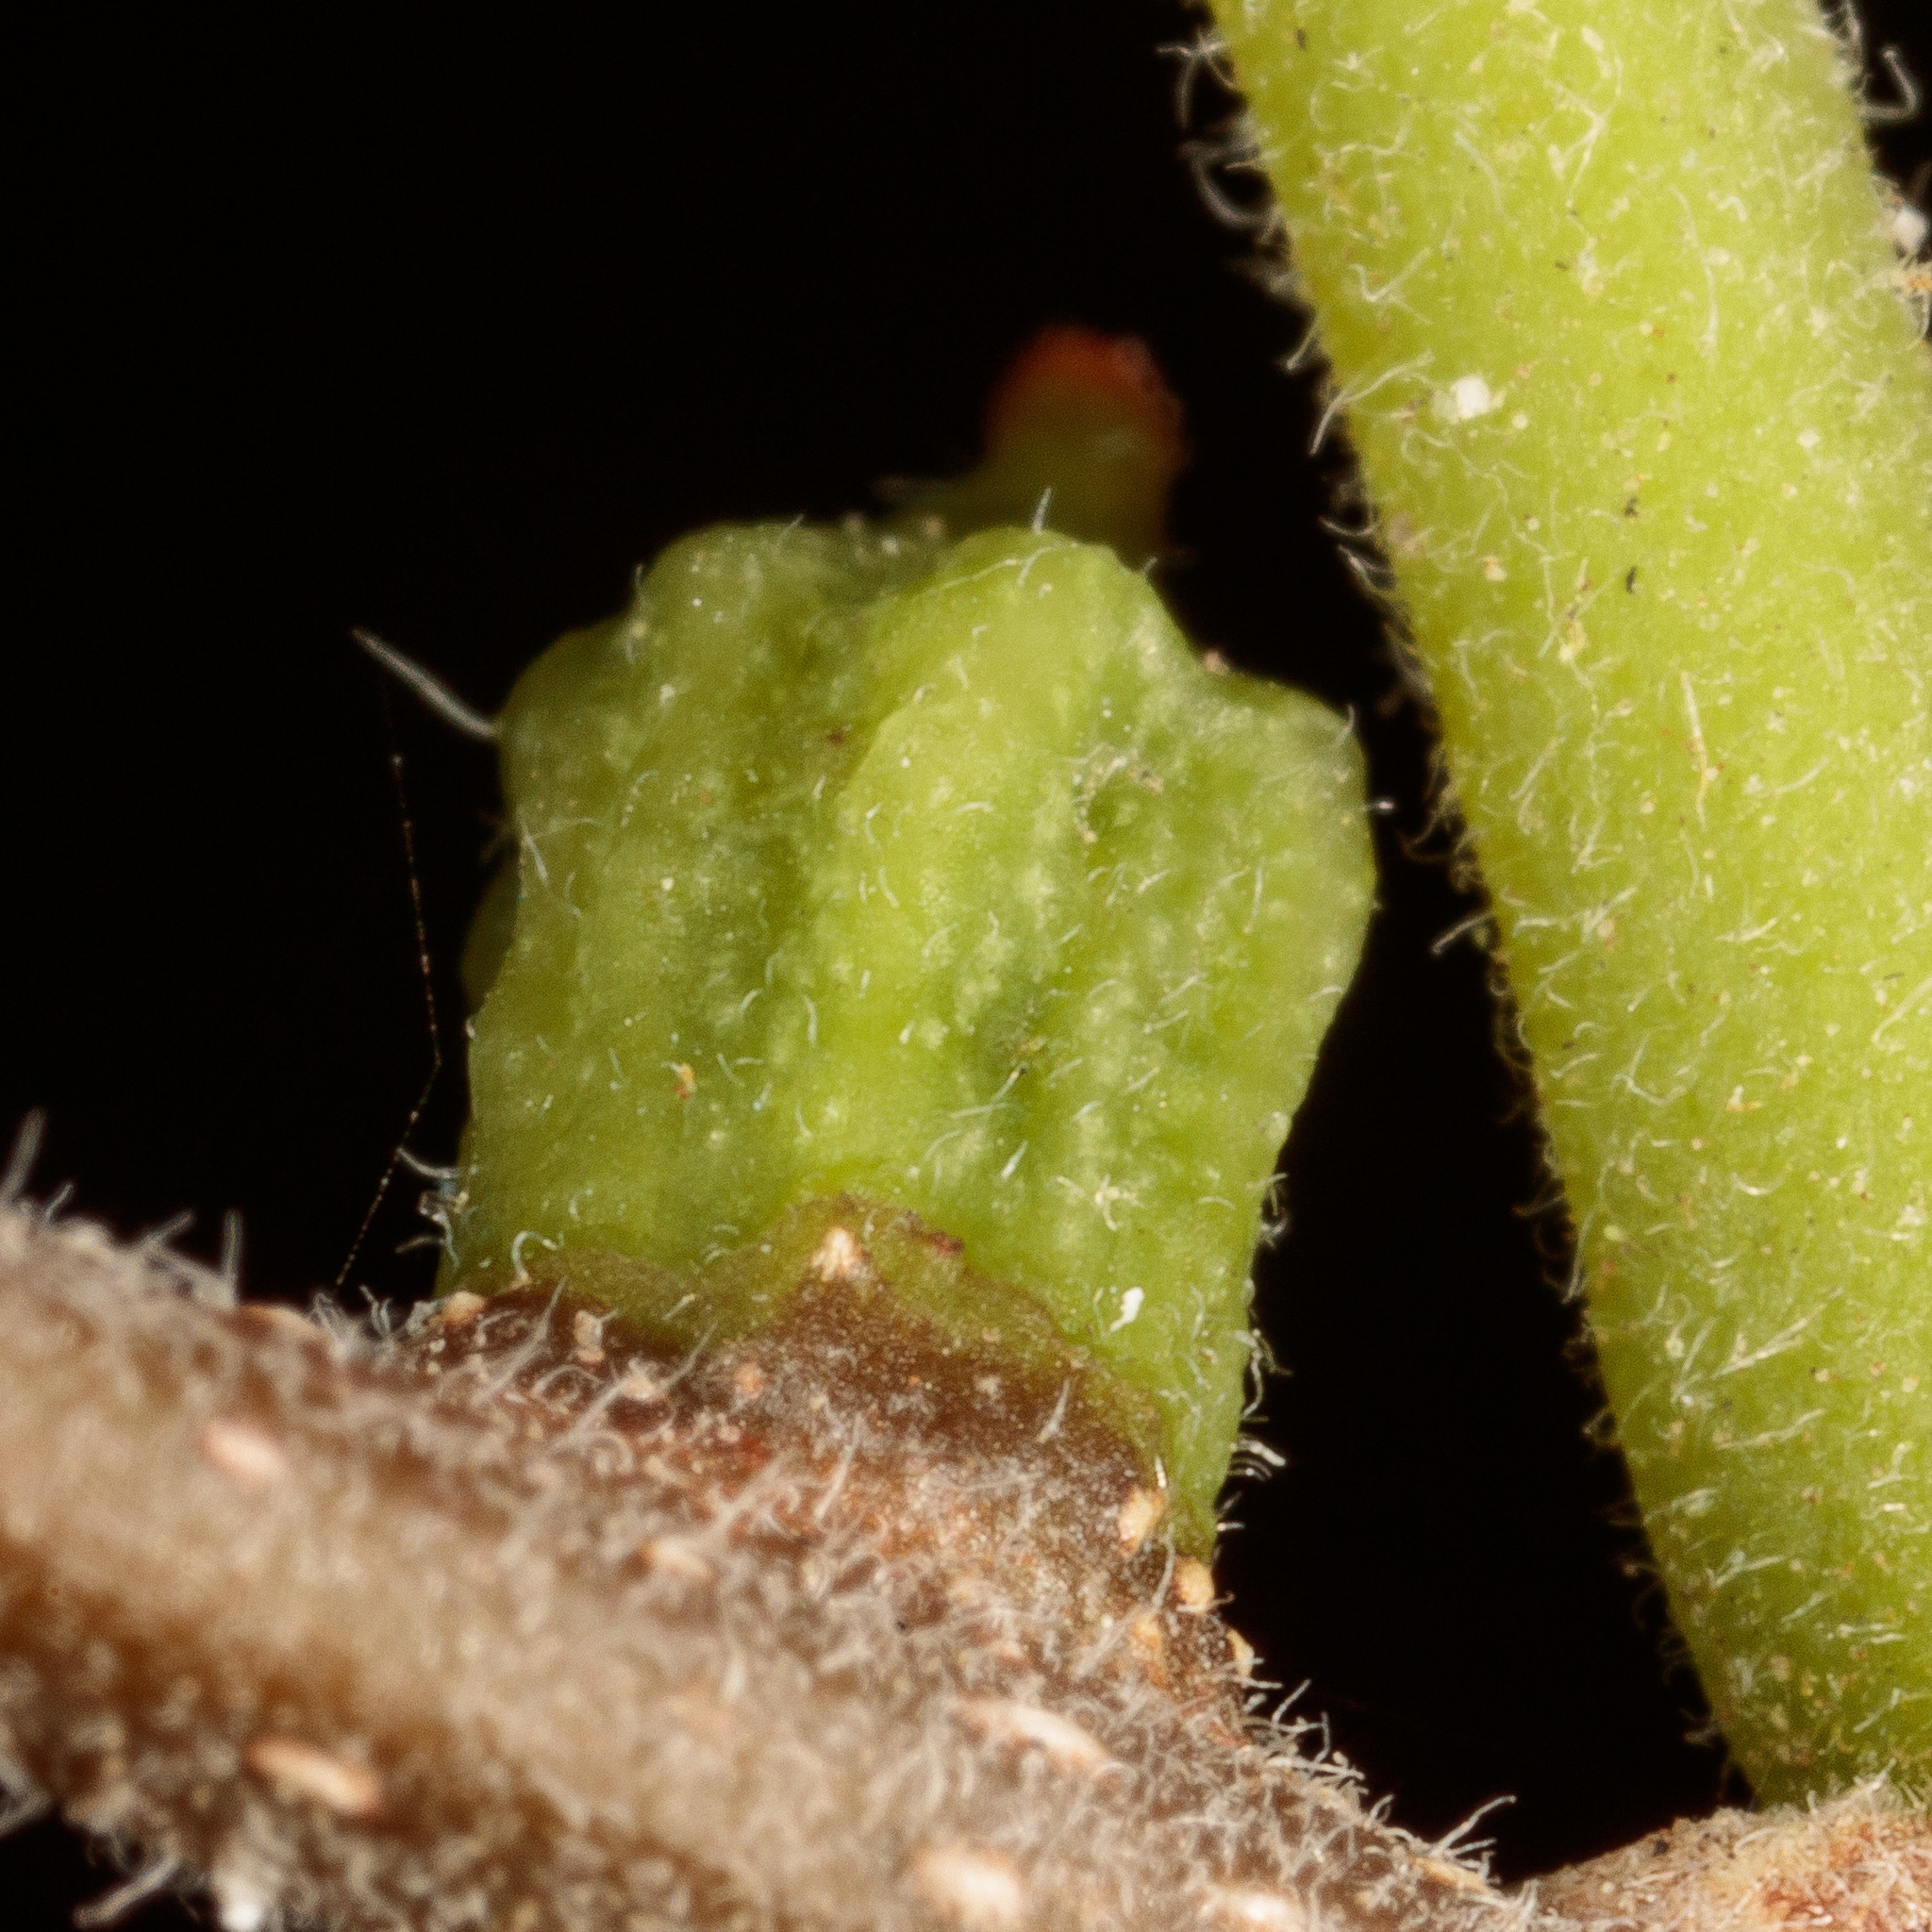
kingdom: Animalia
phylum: Arthropoda
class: Insecta
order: Diptera
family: Cecidomyiidae
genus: Celticecis
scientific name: Celticecis ramicola
